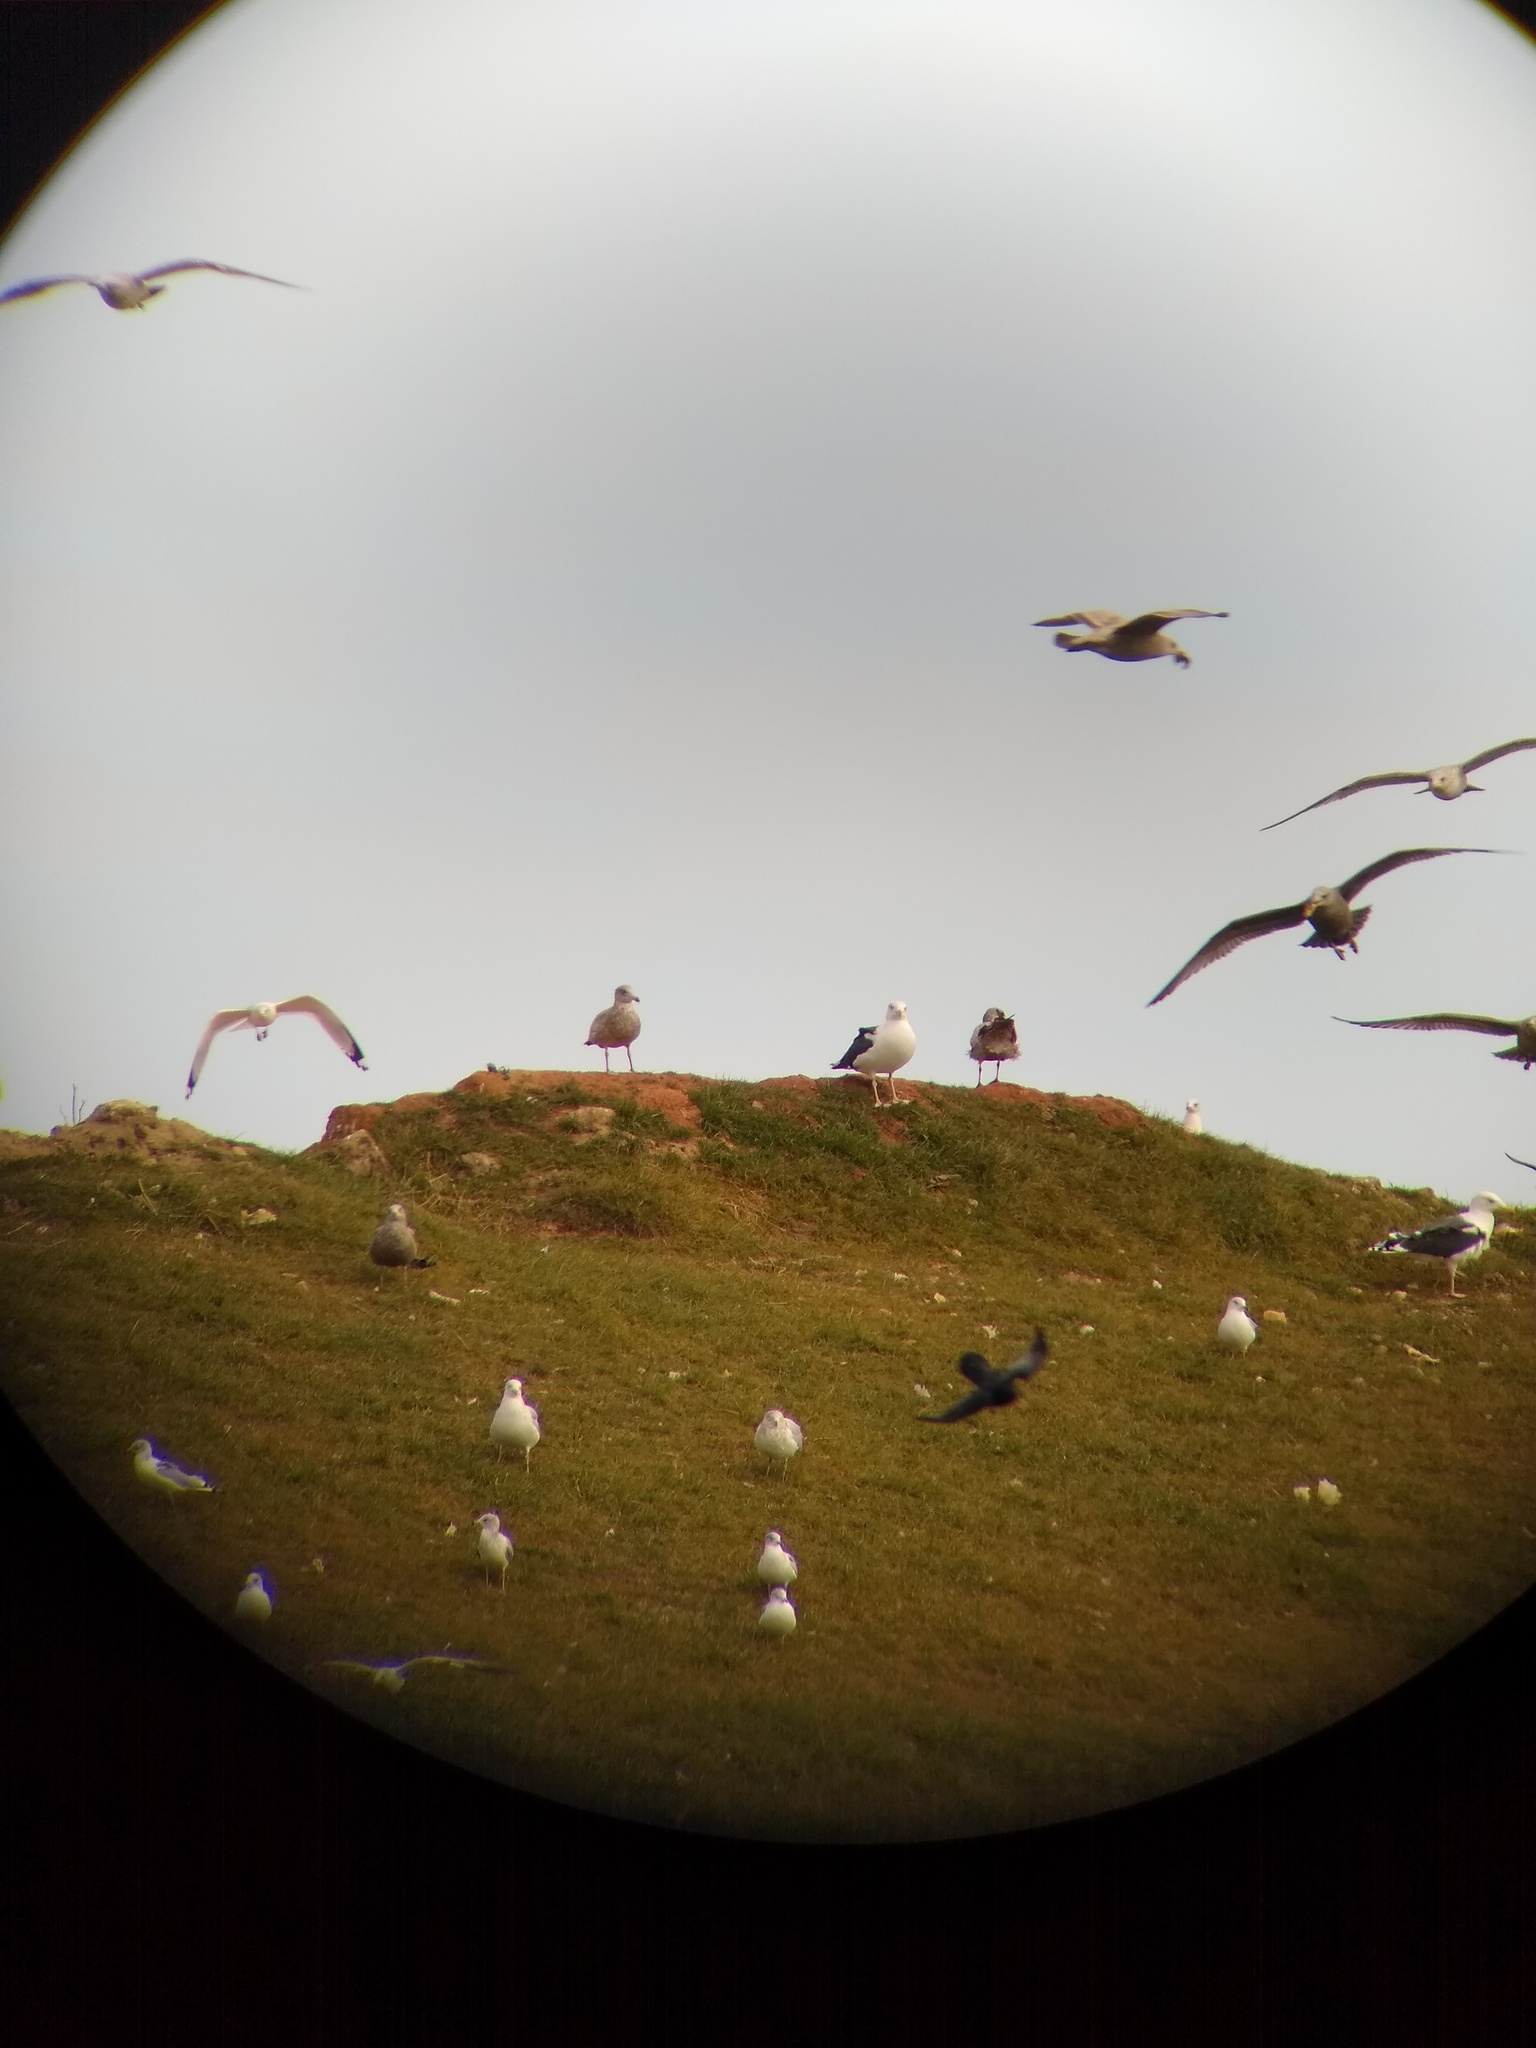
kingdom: Animalia
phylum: Chordata
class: Aves
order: Charadriiformes
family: Laridae
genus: Larus
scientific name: Larus marinus
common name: Great black-backed gull
